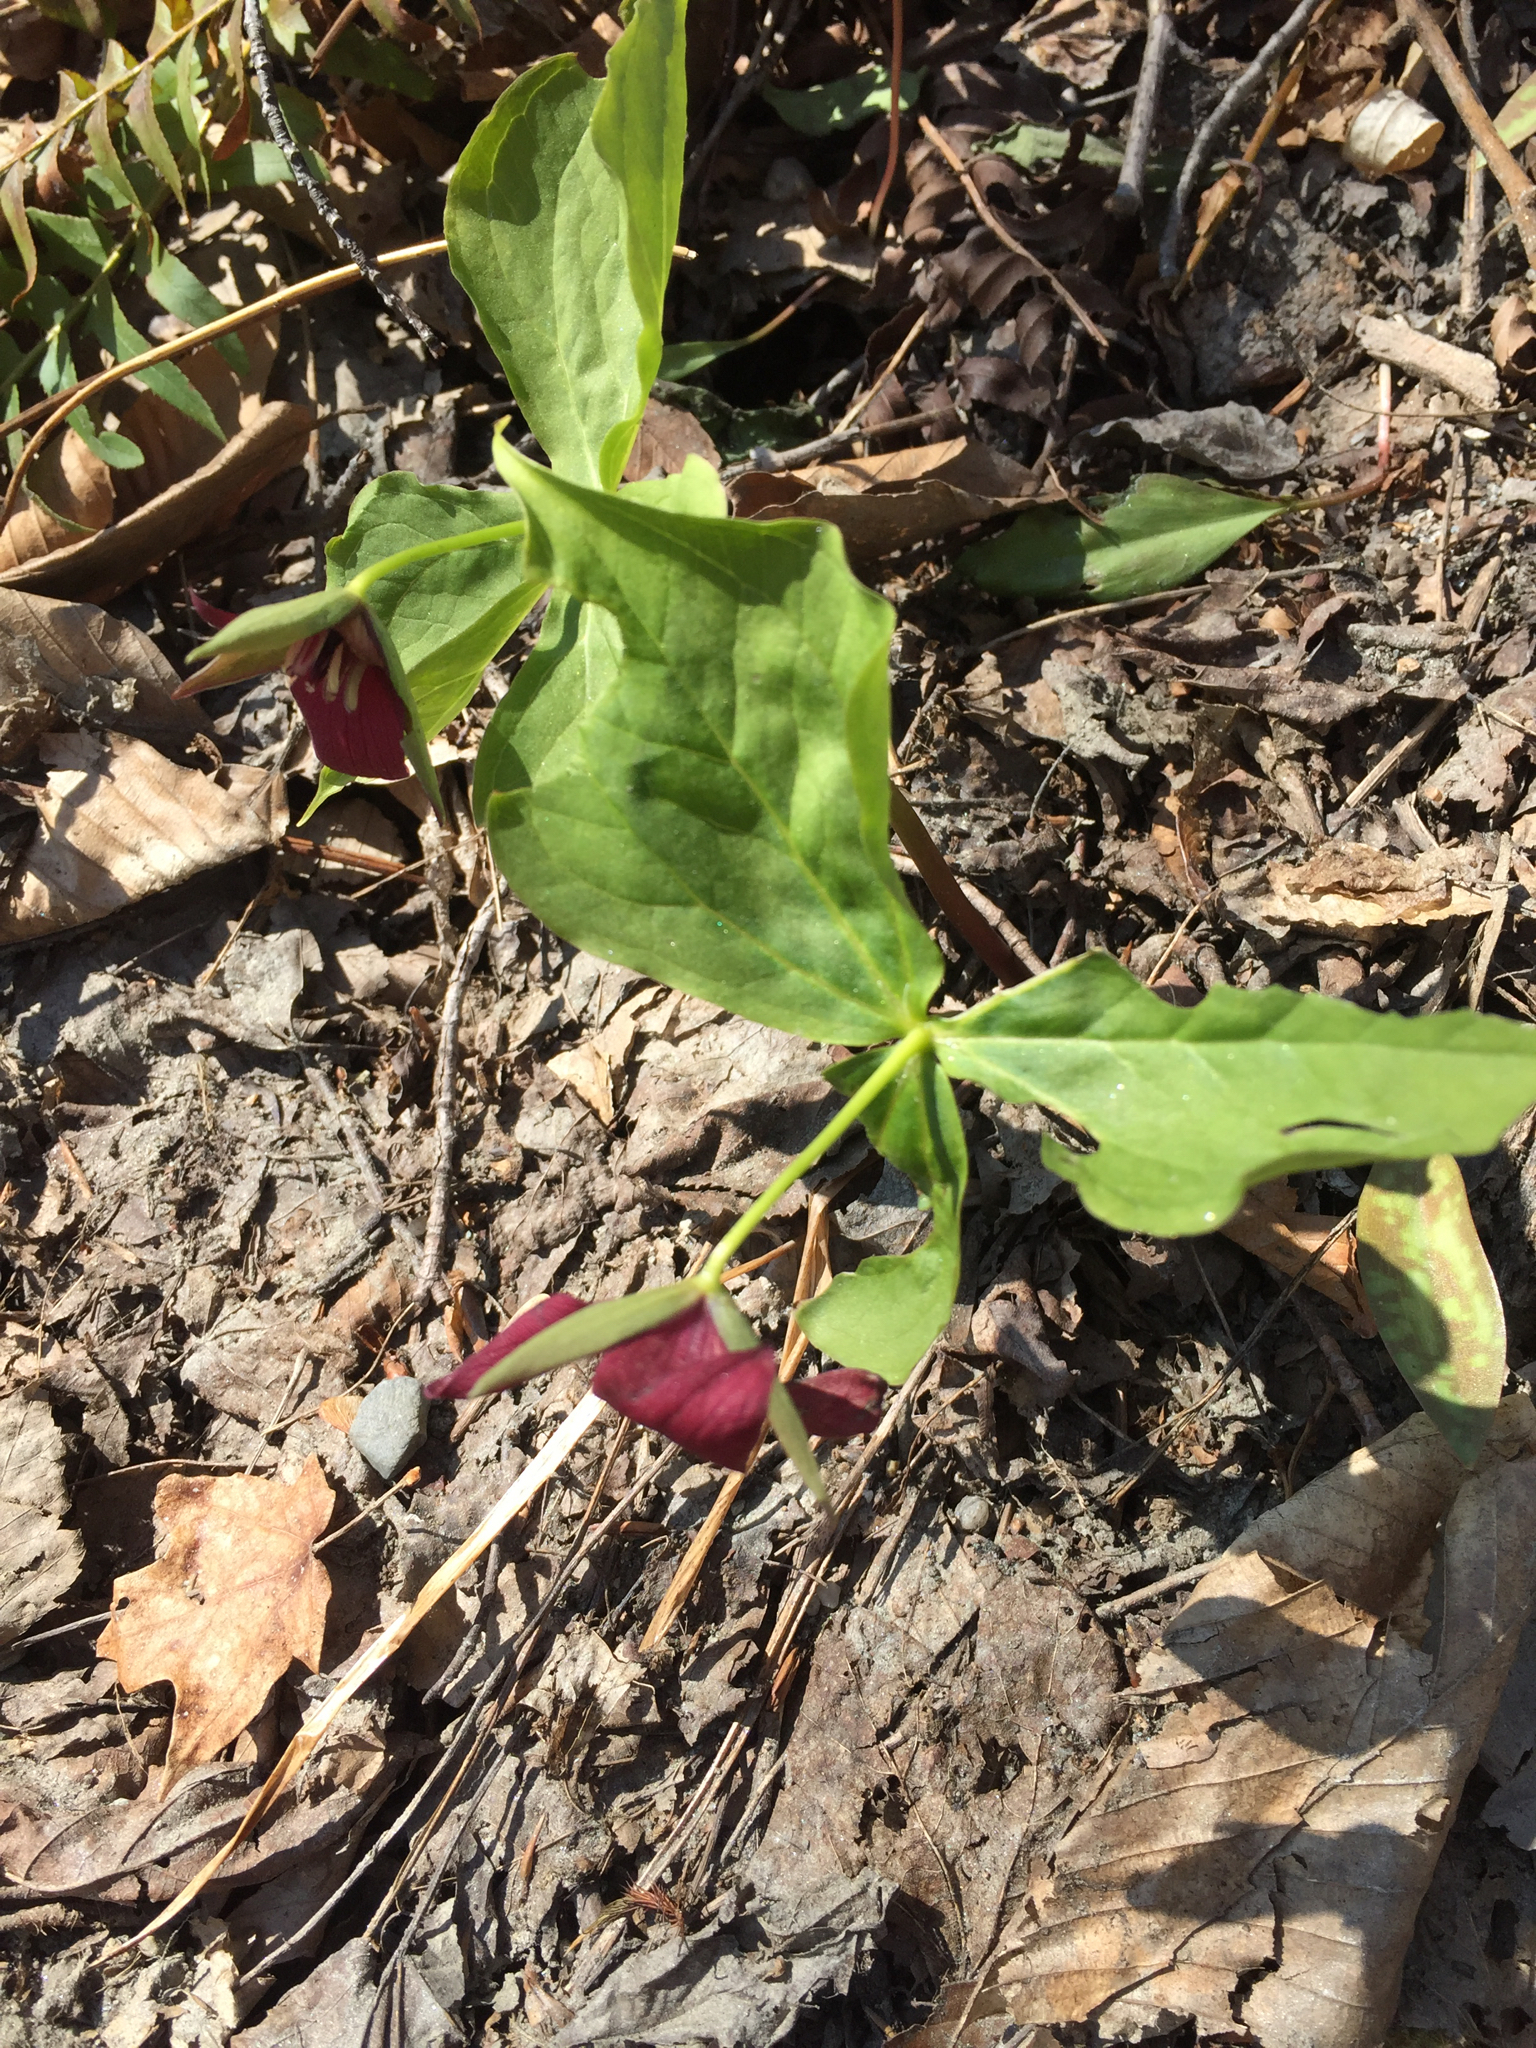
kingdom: Plantae
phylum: Tracheophyta
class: Liliopsida
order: Liliales
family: Melanthiaceae
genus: Trillium
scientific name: Trillium erectum
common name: Purple trillium
